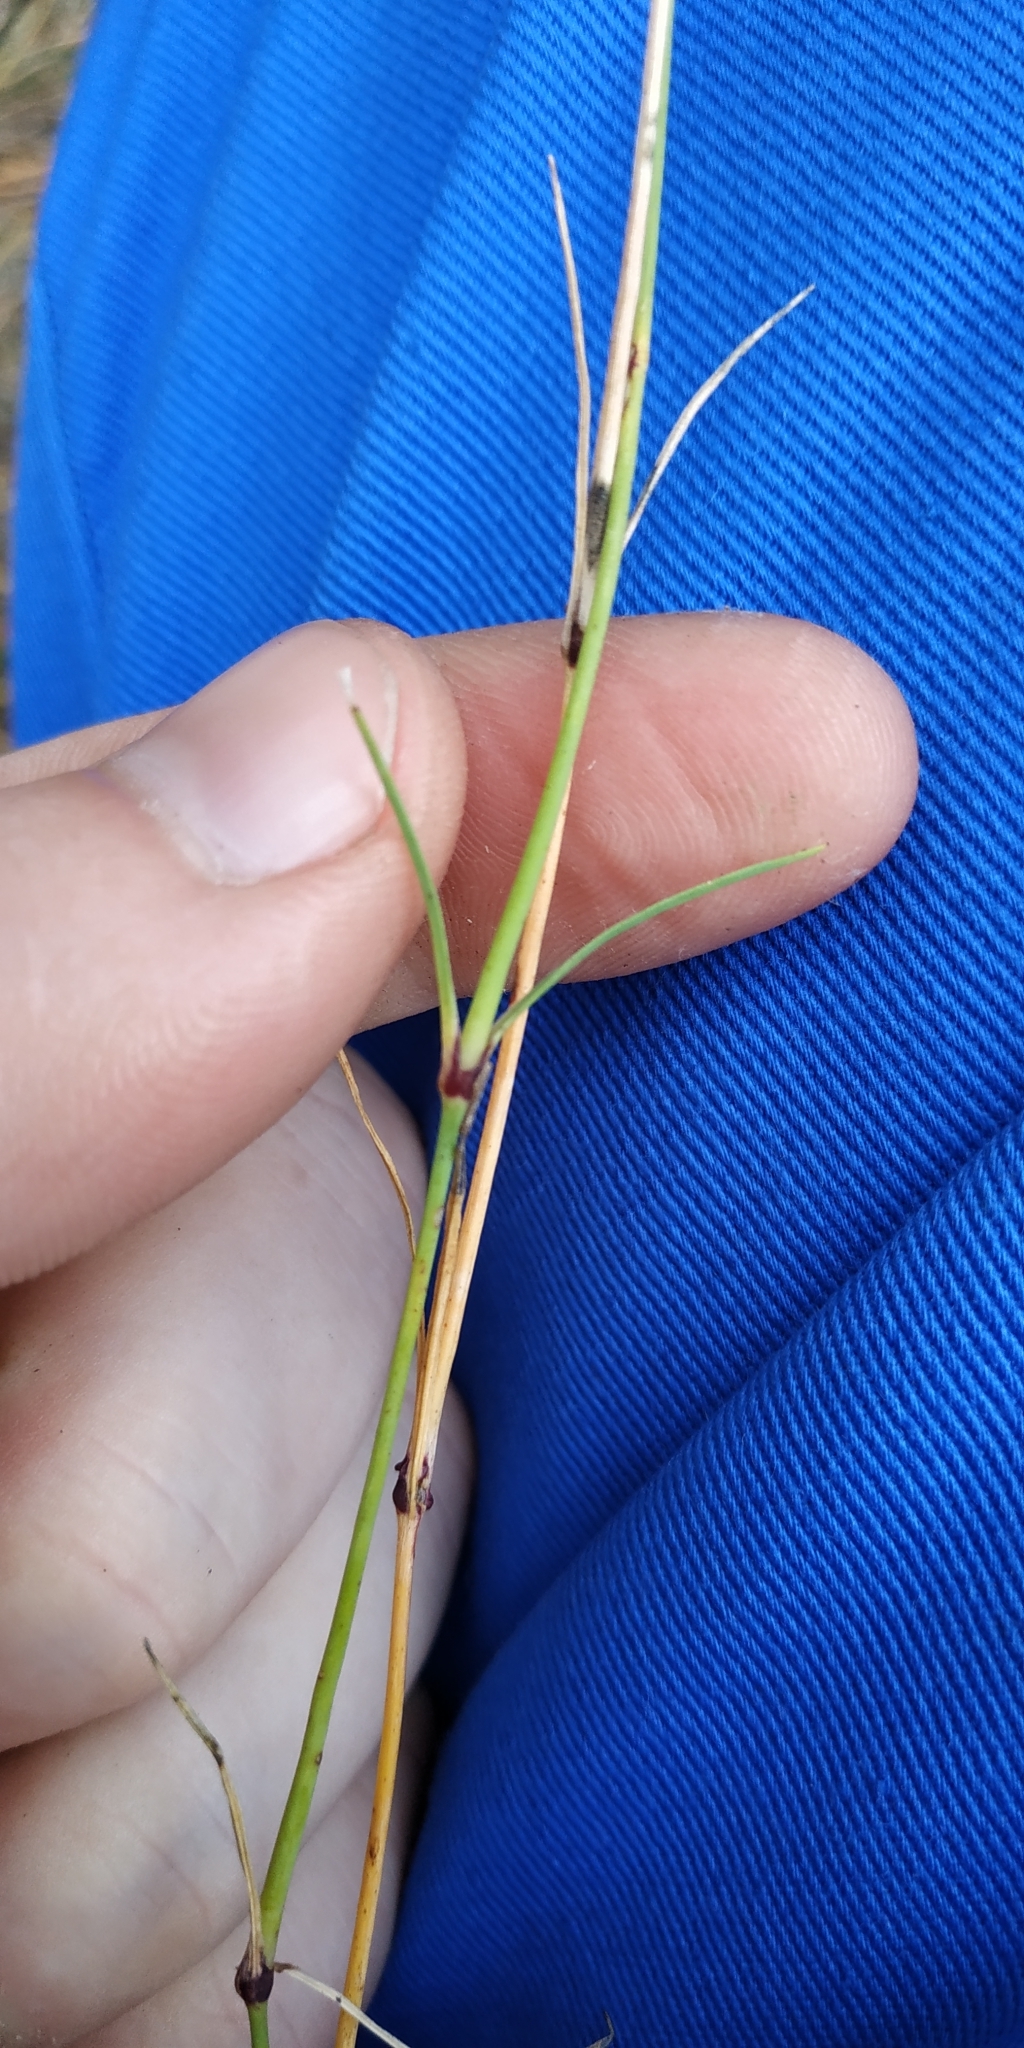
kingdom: Plantae
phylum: Tracheophyta
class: Magnoliopsida
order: Caryophyllales
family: Caryophyllaceae
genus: Dianthus
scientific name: Dianthus arenarius
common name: Stone pink
